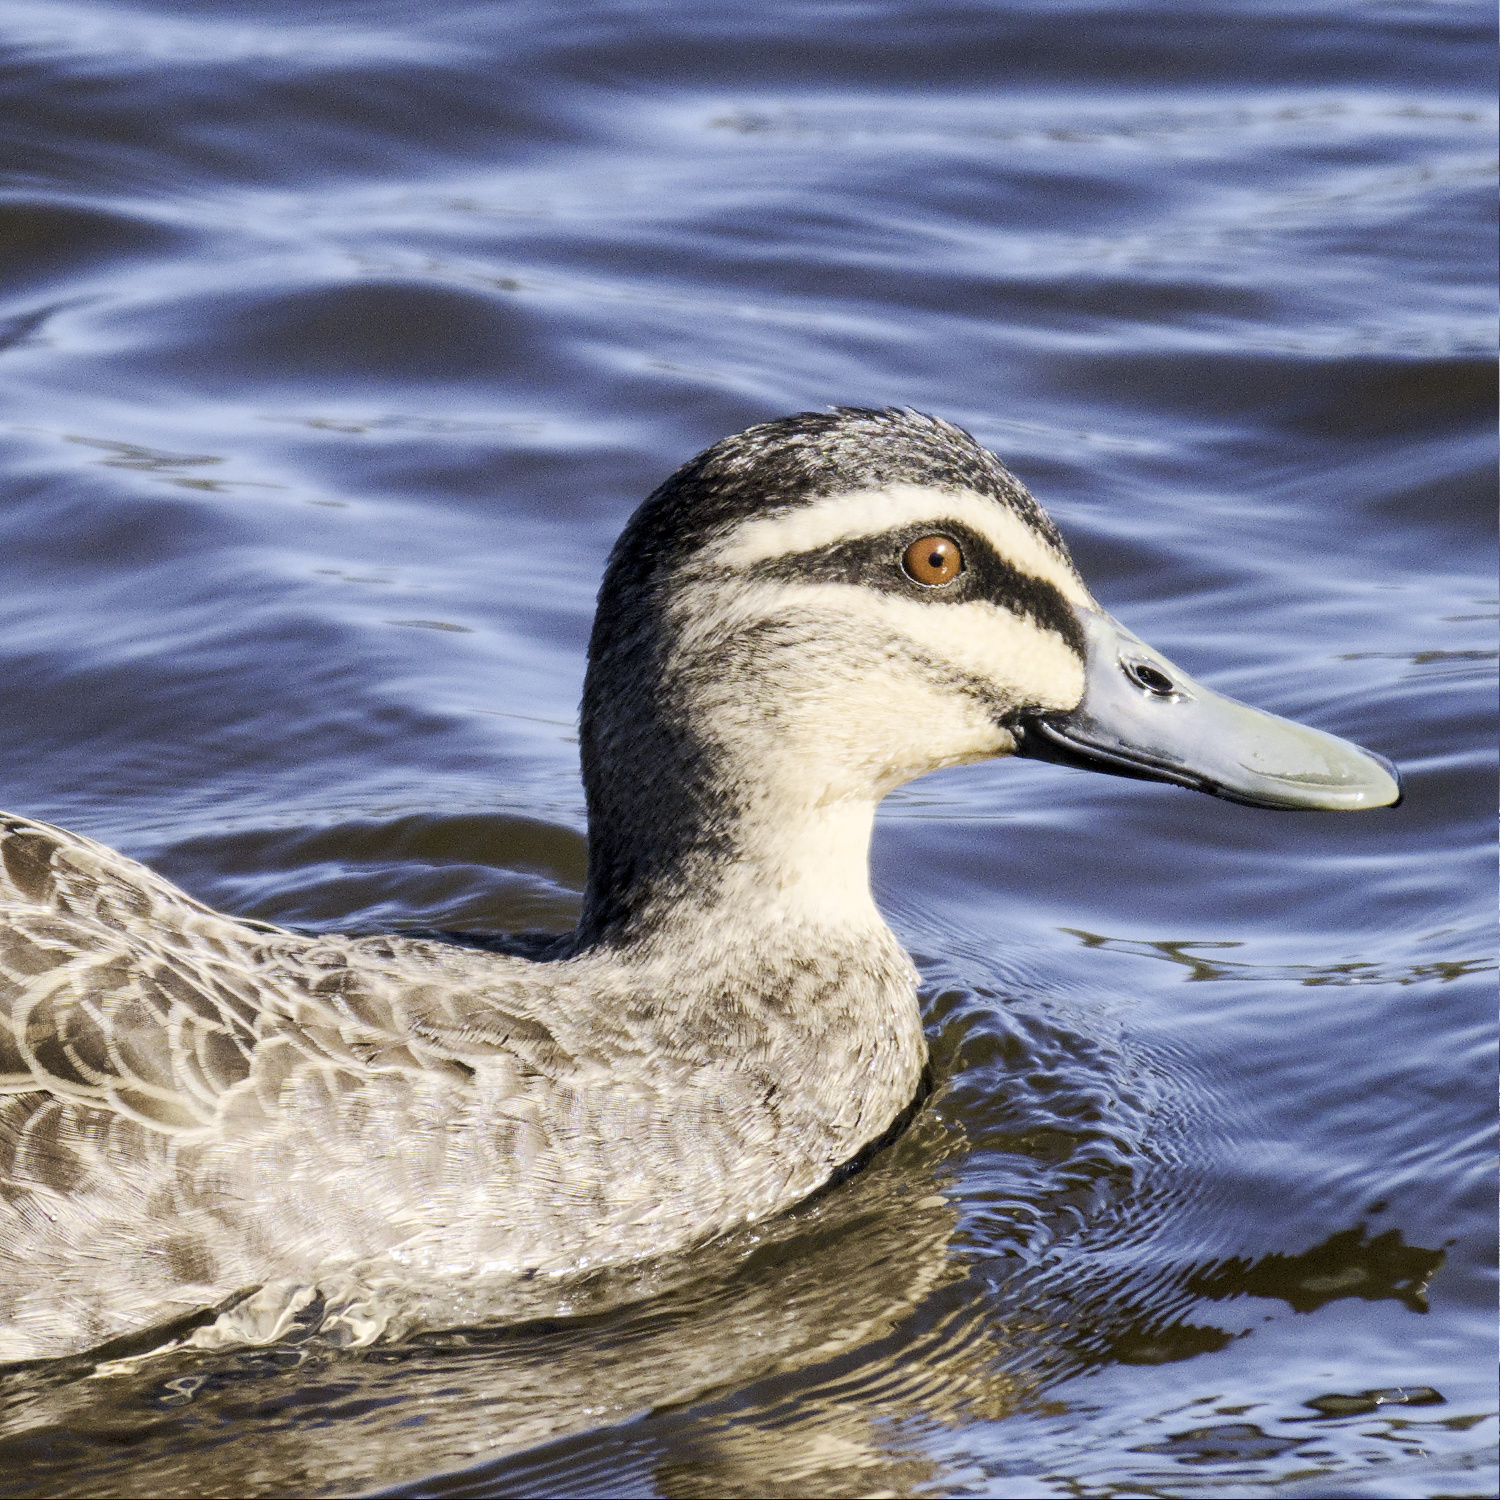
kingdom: Animalia
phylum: Chordata
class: Aves
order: Anseriformes
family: Anatidae
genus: Anas
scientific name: Anas superciliosa
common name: Pacific black duck
